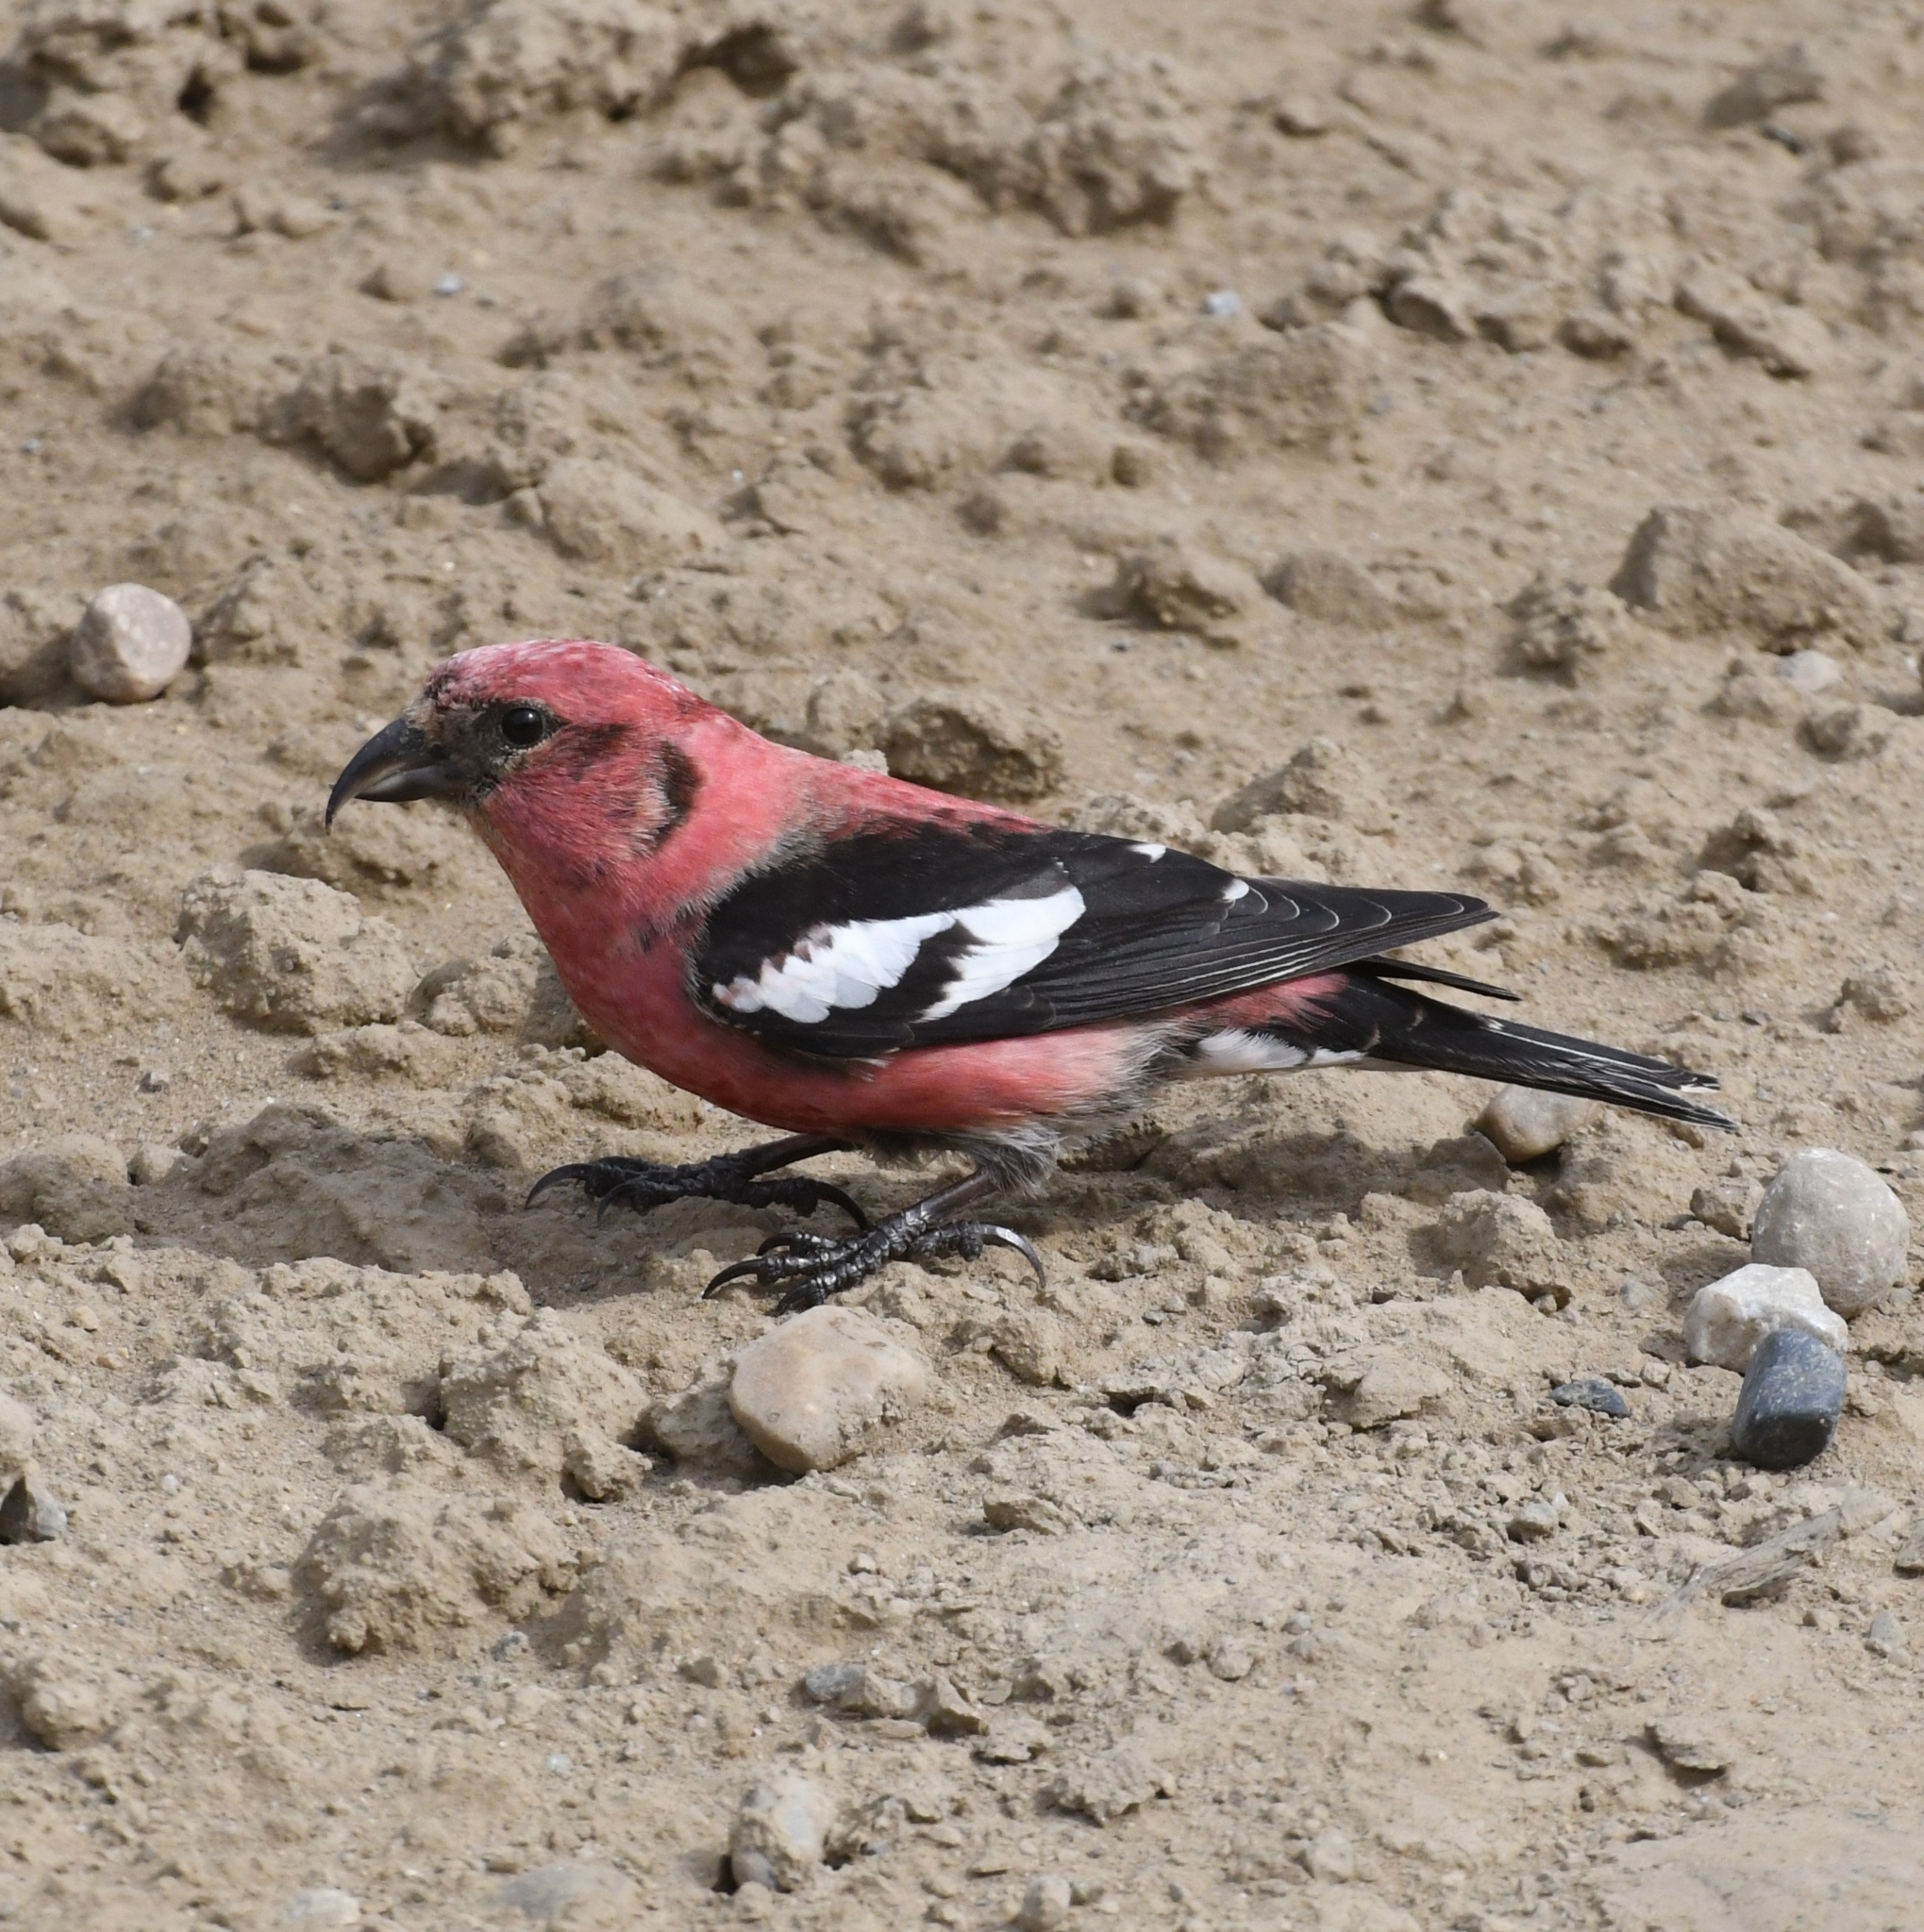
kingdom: Animalia
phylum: Chordata
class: Aves
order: Passeriformes
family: Fringillidae
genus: Loxia
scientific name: Loxia leucoptera
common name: Two-barred crossbill
